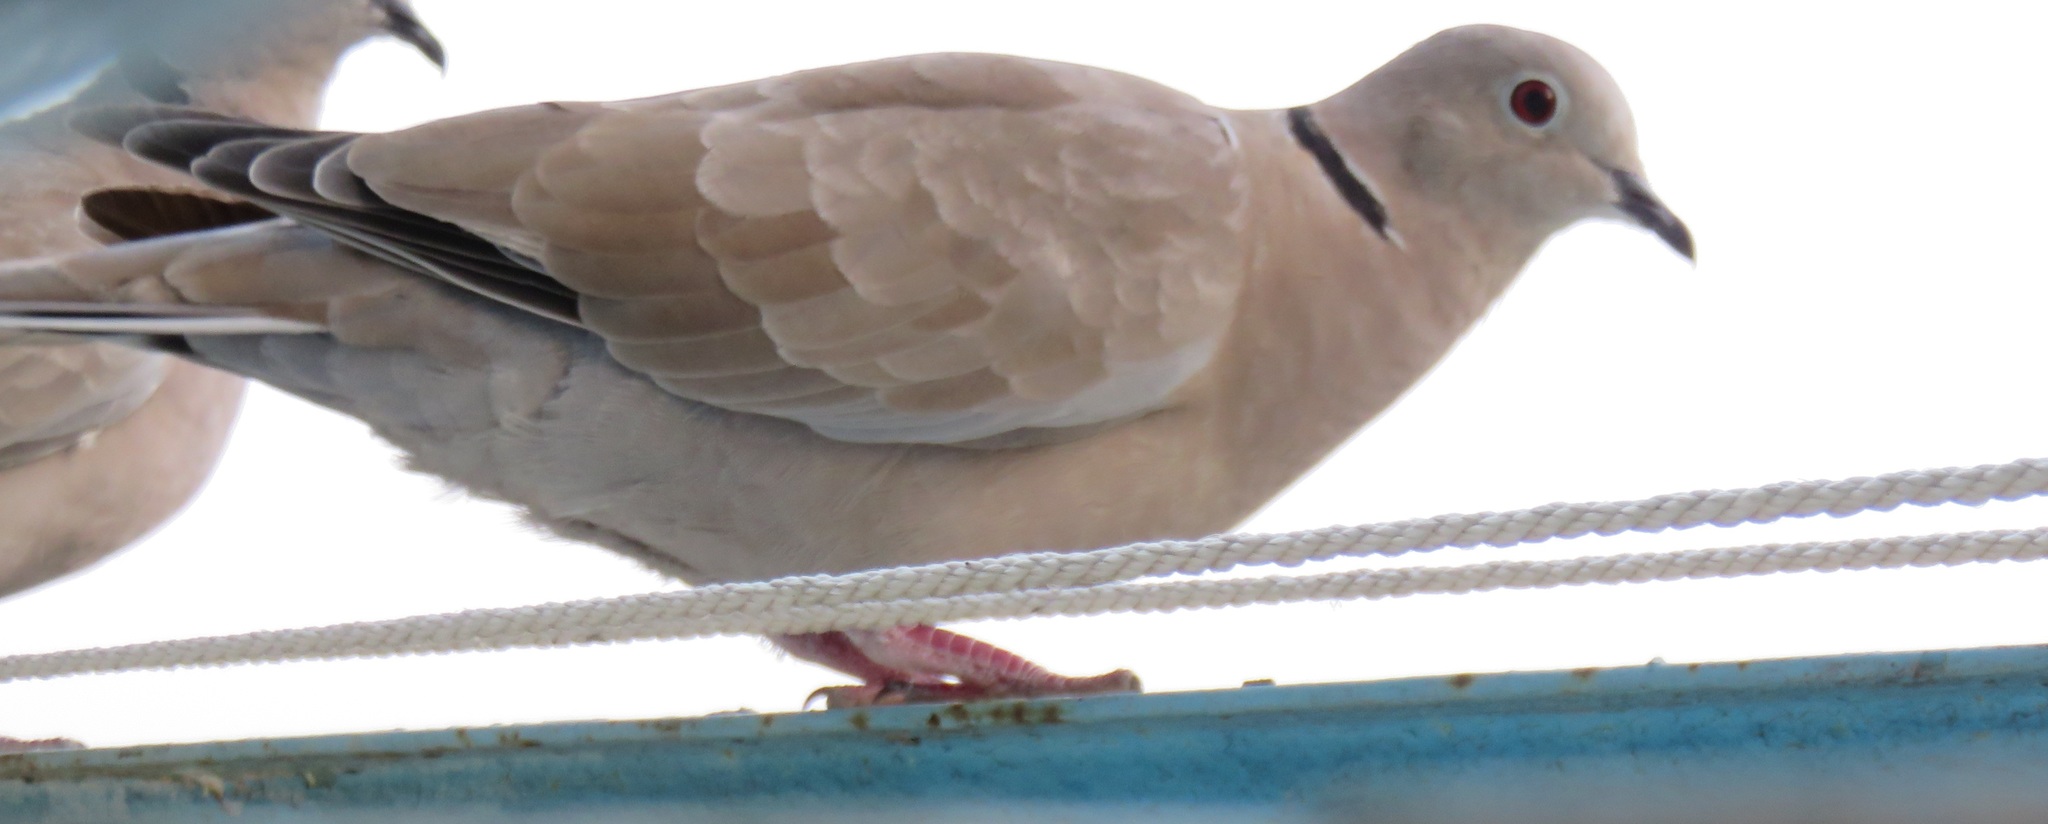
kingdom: Animalia
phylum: Chordata
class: Aves
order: Columbiformes
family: Columbidae
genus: Streptopelia
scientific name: Streptopelia decaocto
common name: Eurasian collared dove
